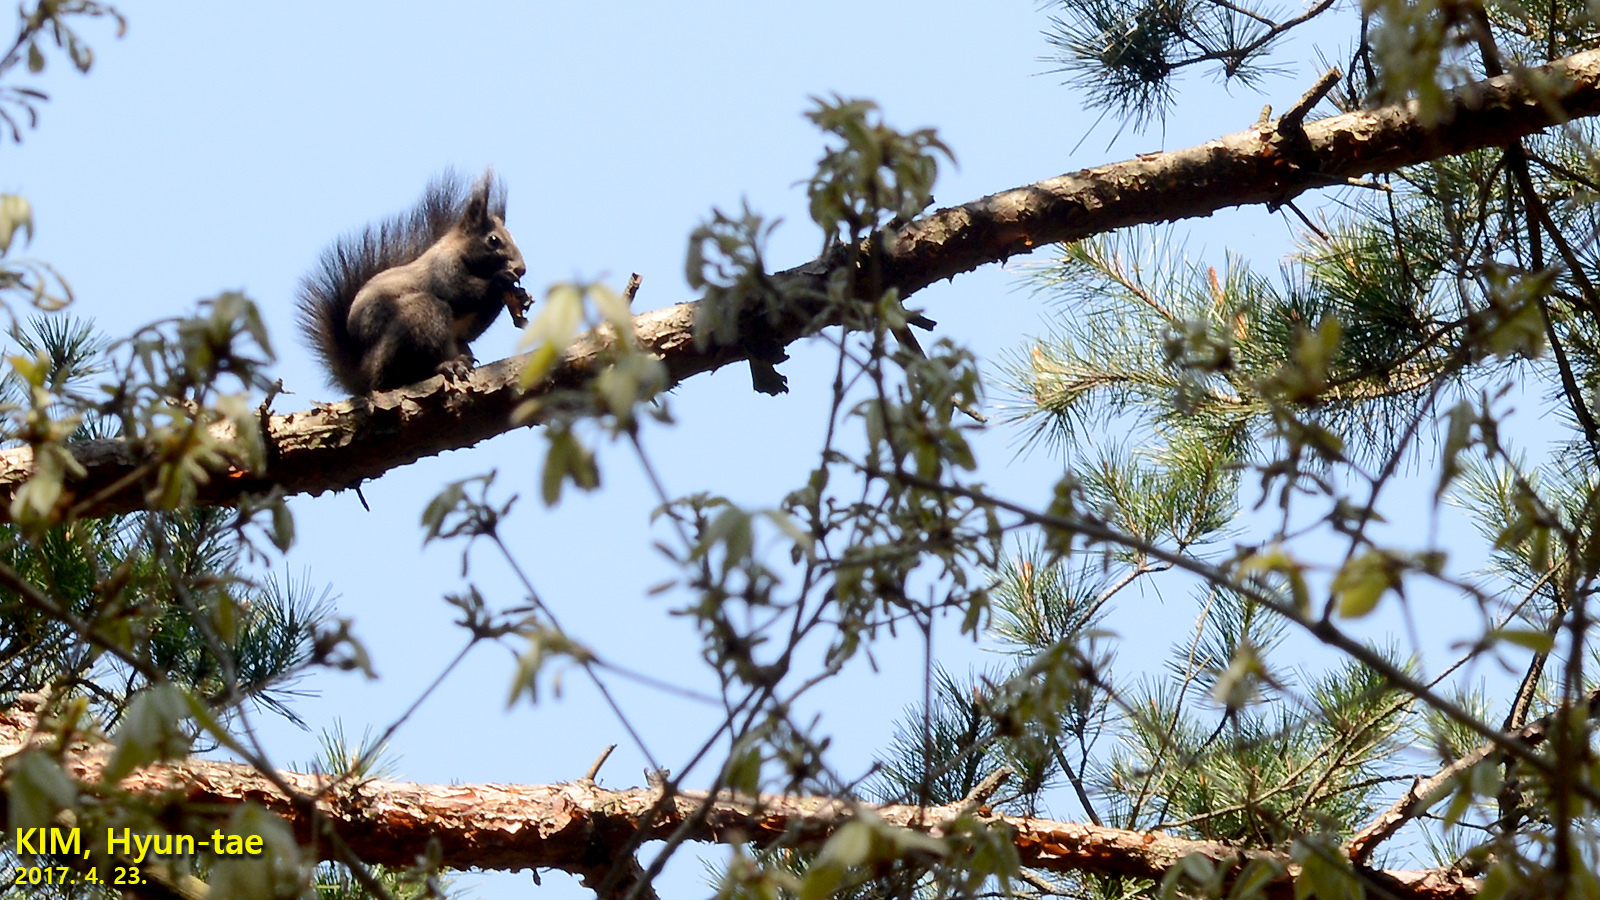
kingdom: Animalia
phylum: Chordata
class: Mammalia
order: Rodentia
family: Sciuridae
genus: Sciurus
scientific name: Sciurus vulgaris
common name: Eurasian red squirrel
